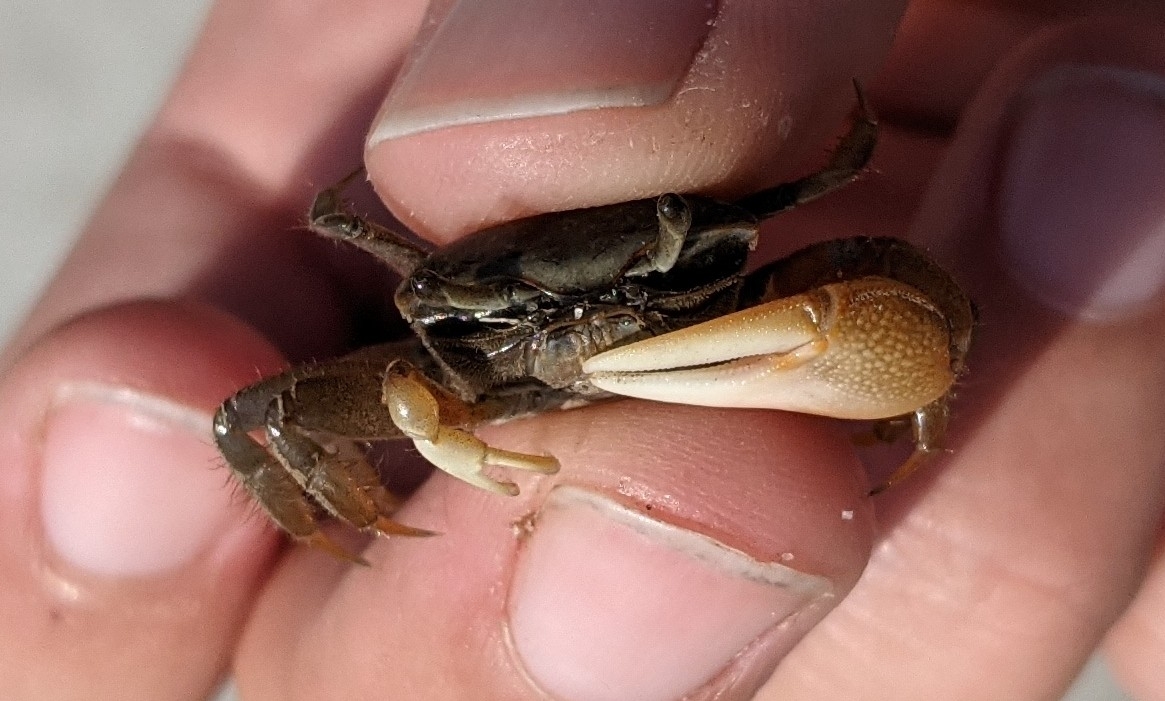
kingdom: Animalia
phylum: Arthropoda
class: Malacostraca
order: Decapoda
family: Ocypodidae
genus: Minuca
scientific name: Minuca pugnax
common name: Mud fiddler crab
